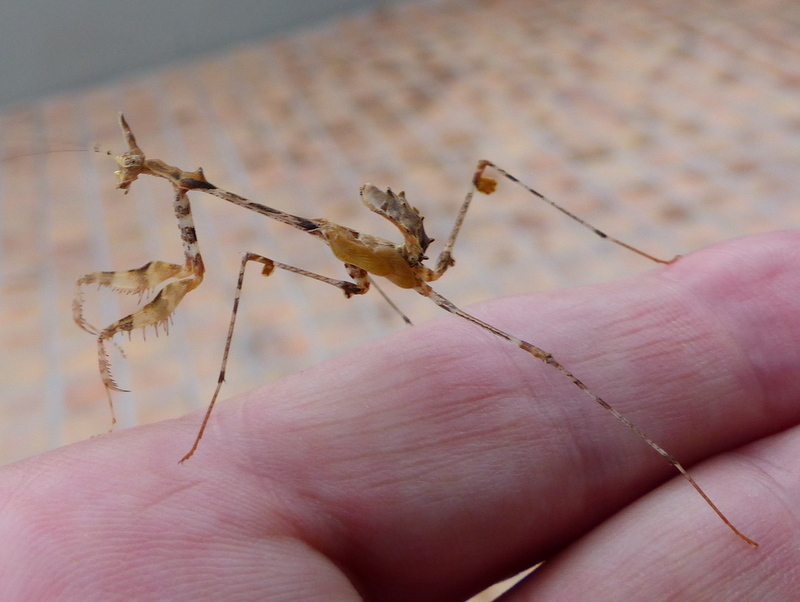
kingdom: Animalia
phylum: Arthropoda
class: Insecta
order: Mantodea
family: Hymenopodidae
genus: Sibylla
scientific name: Sibylla pretiosa
